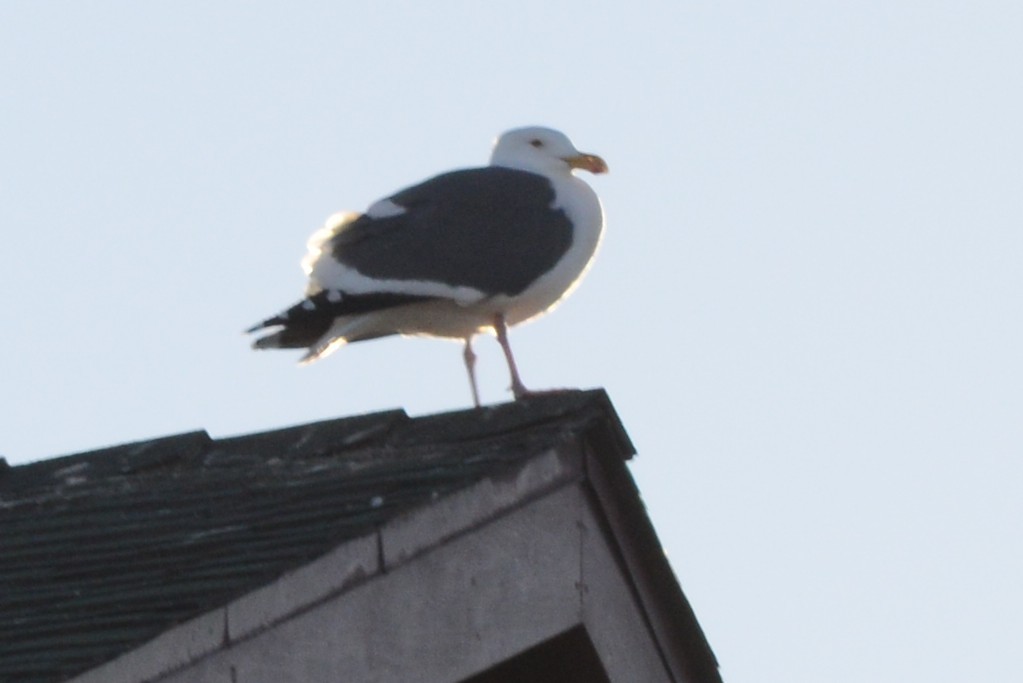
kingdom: Animalia
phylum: Chordata
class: Aves
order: Charadriiformes
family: Laridae
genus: Larus
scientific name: Larus occidentalis
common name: Western gull
